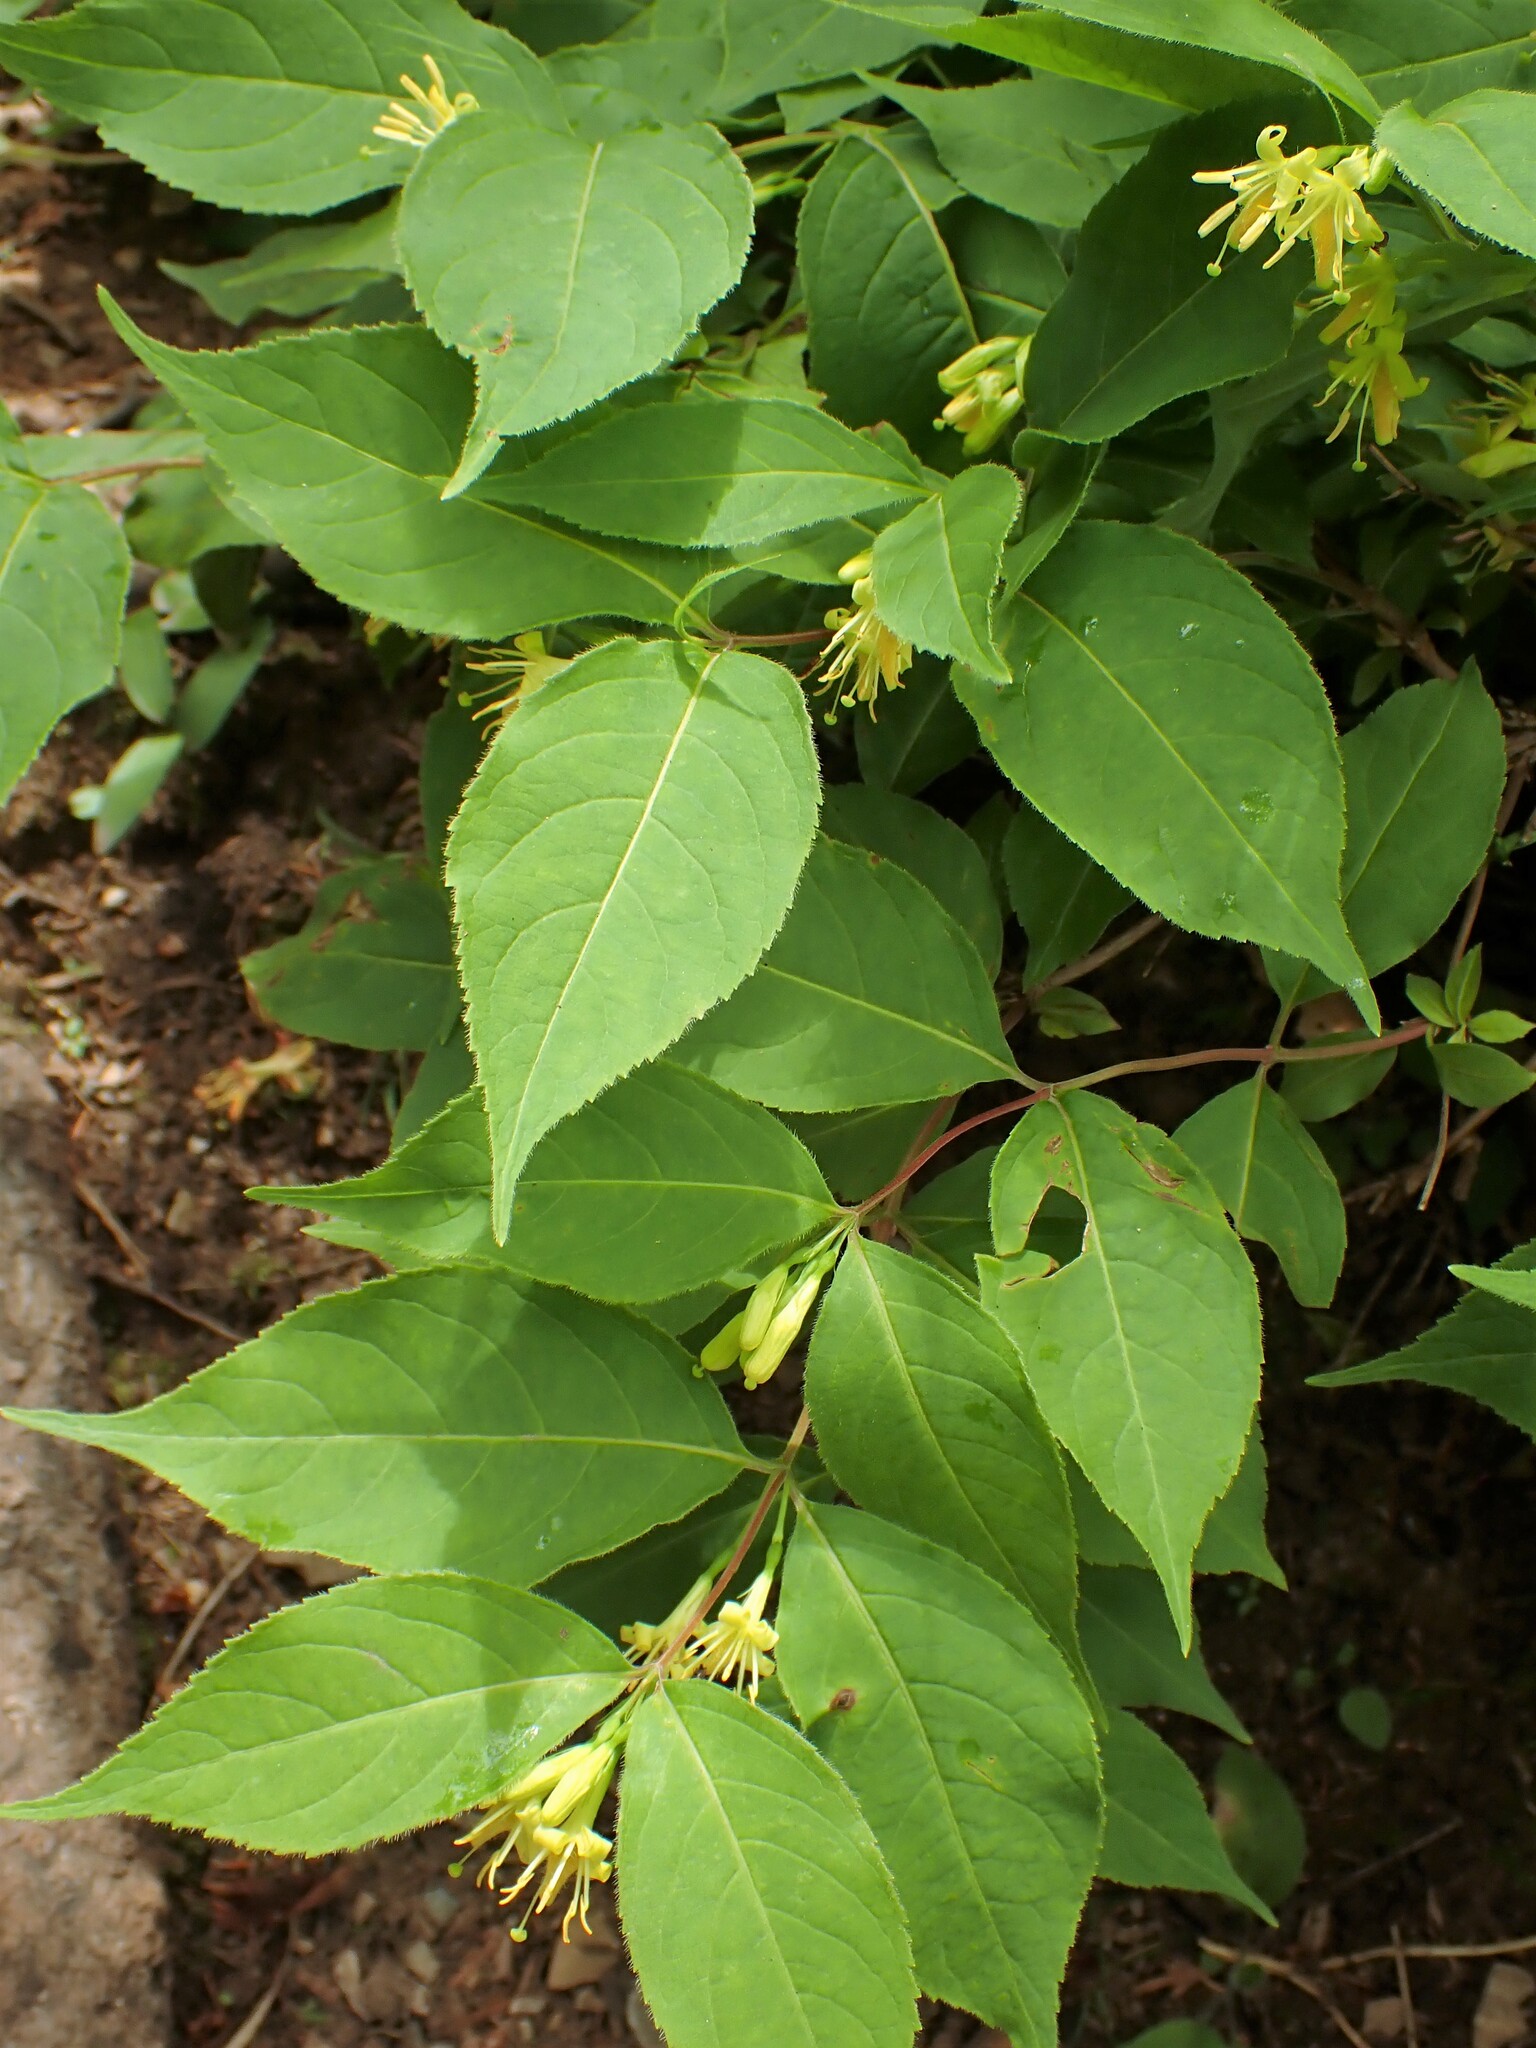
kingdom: Plantae
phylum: Tracheophyta
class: Magnoliopsida
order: Dipsacales
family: Caprifoliaceae
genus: Diervilla
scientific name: Diervilla lonicera
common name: Bush-honeysuckle
